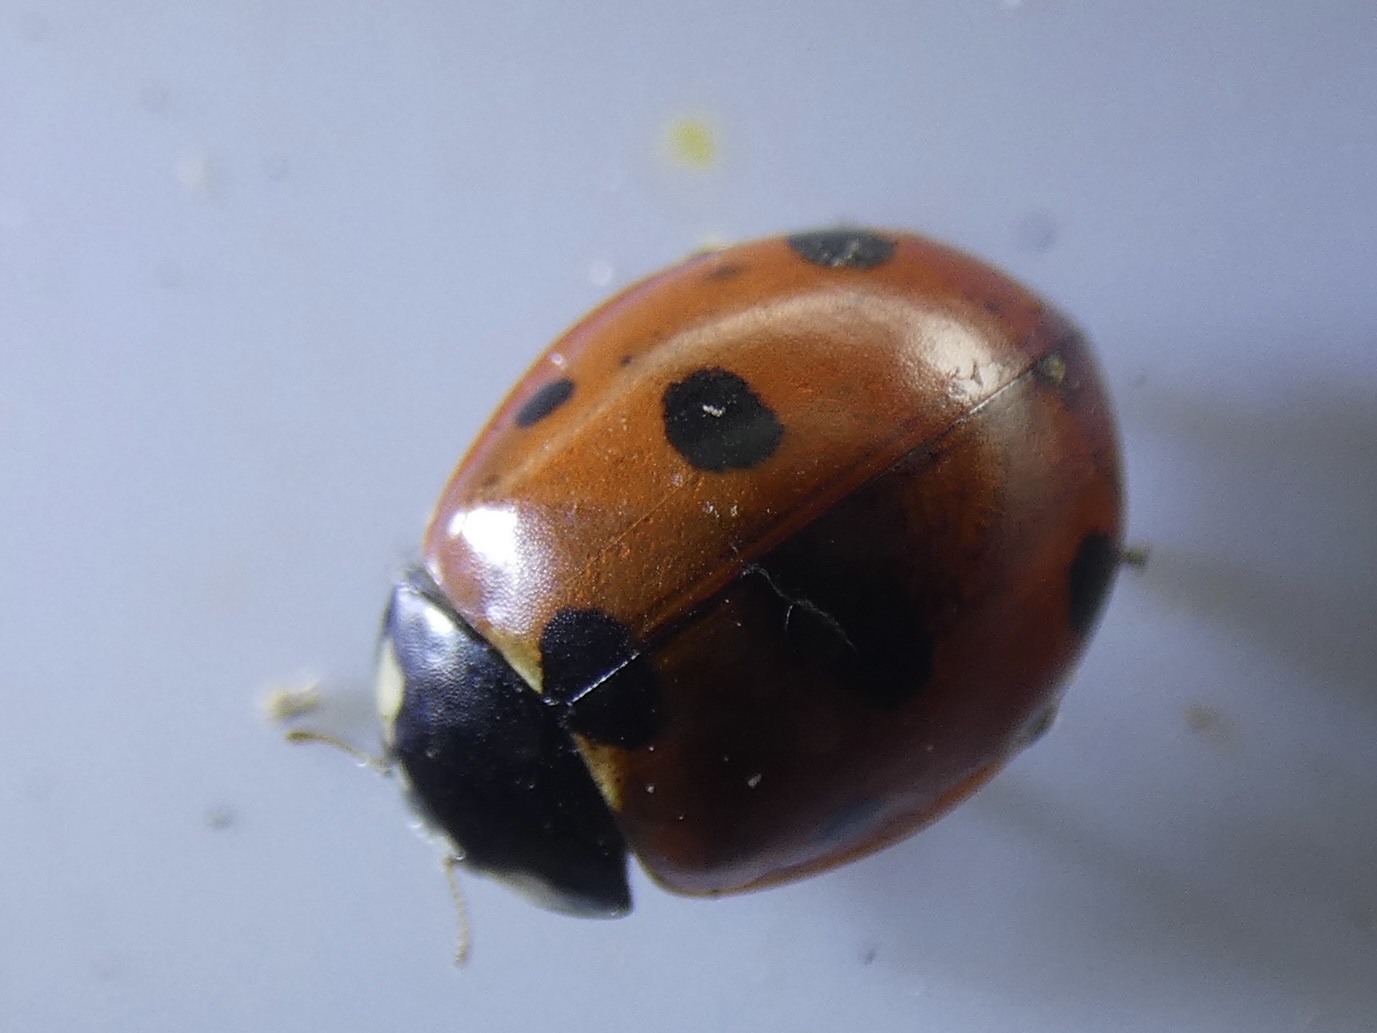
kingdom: Animalia
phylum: Arthropoda
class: Insecta
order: Coleoptera
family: Coccinellidae
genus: Coccinella
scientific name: Coccinella septempunctata
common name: Sevenspotted lady beetle
